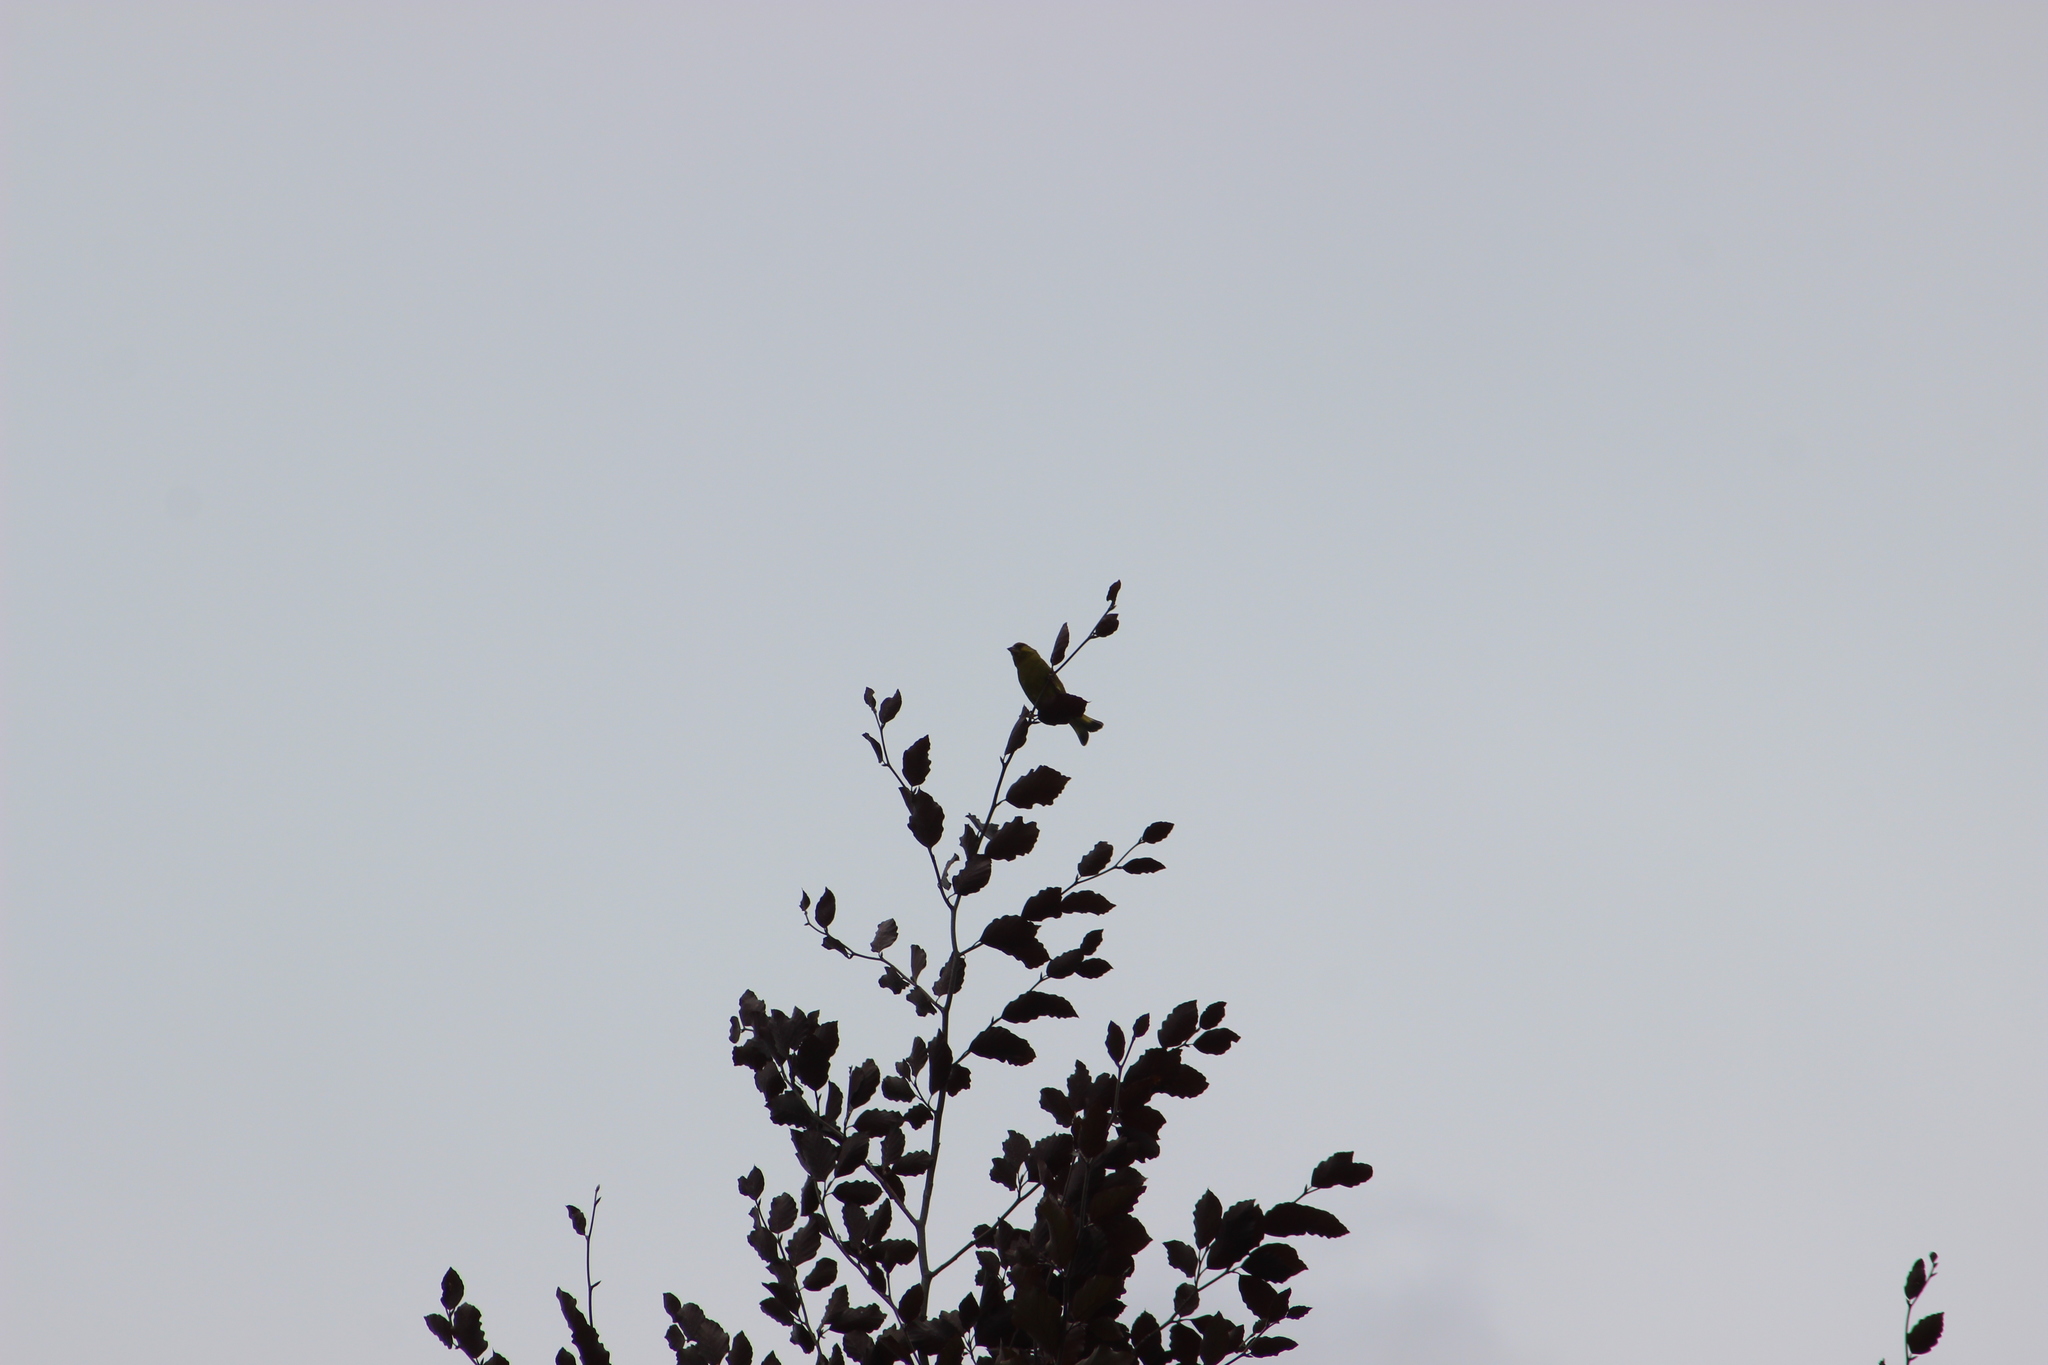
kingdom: Plantae
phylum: Tracheophyta
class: Liliopsida
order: Poales
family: Poaceae
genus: Chloris
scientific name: Chloris chloris
